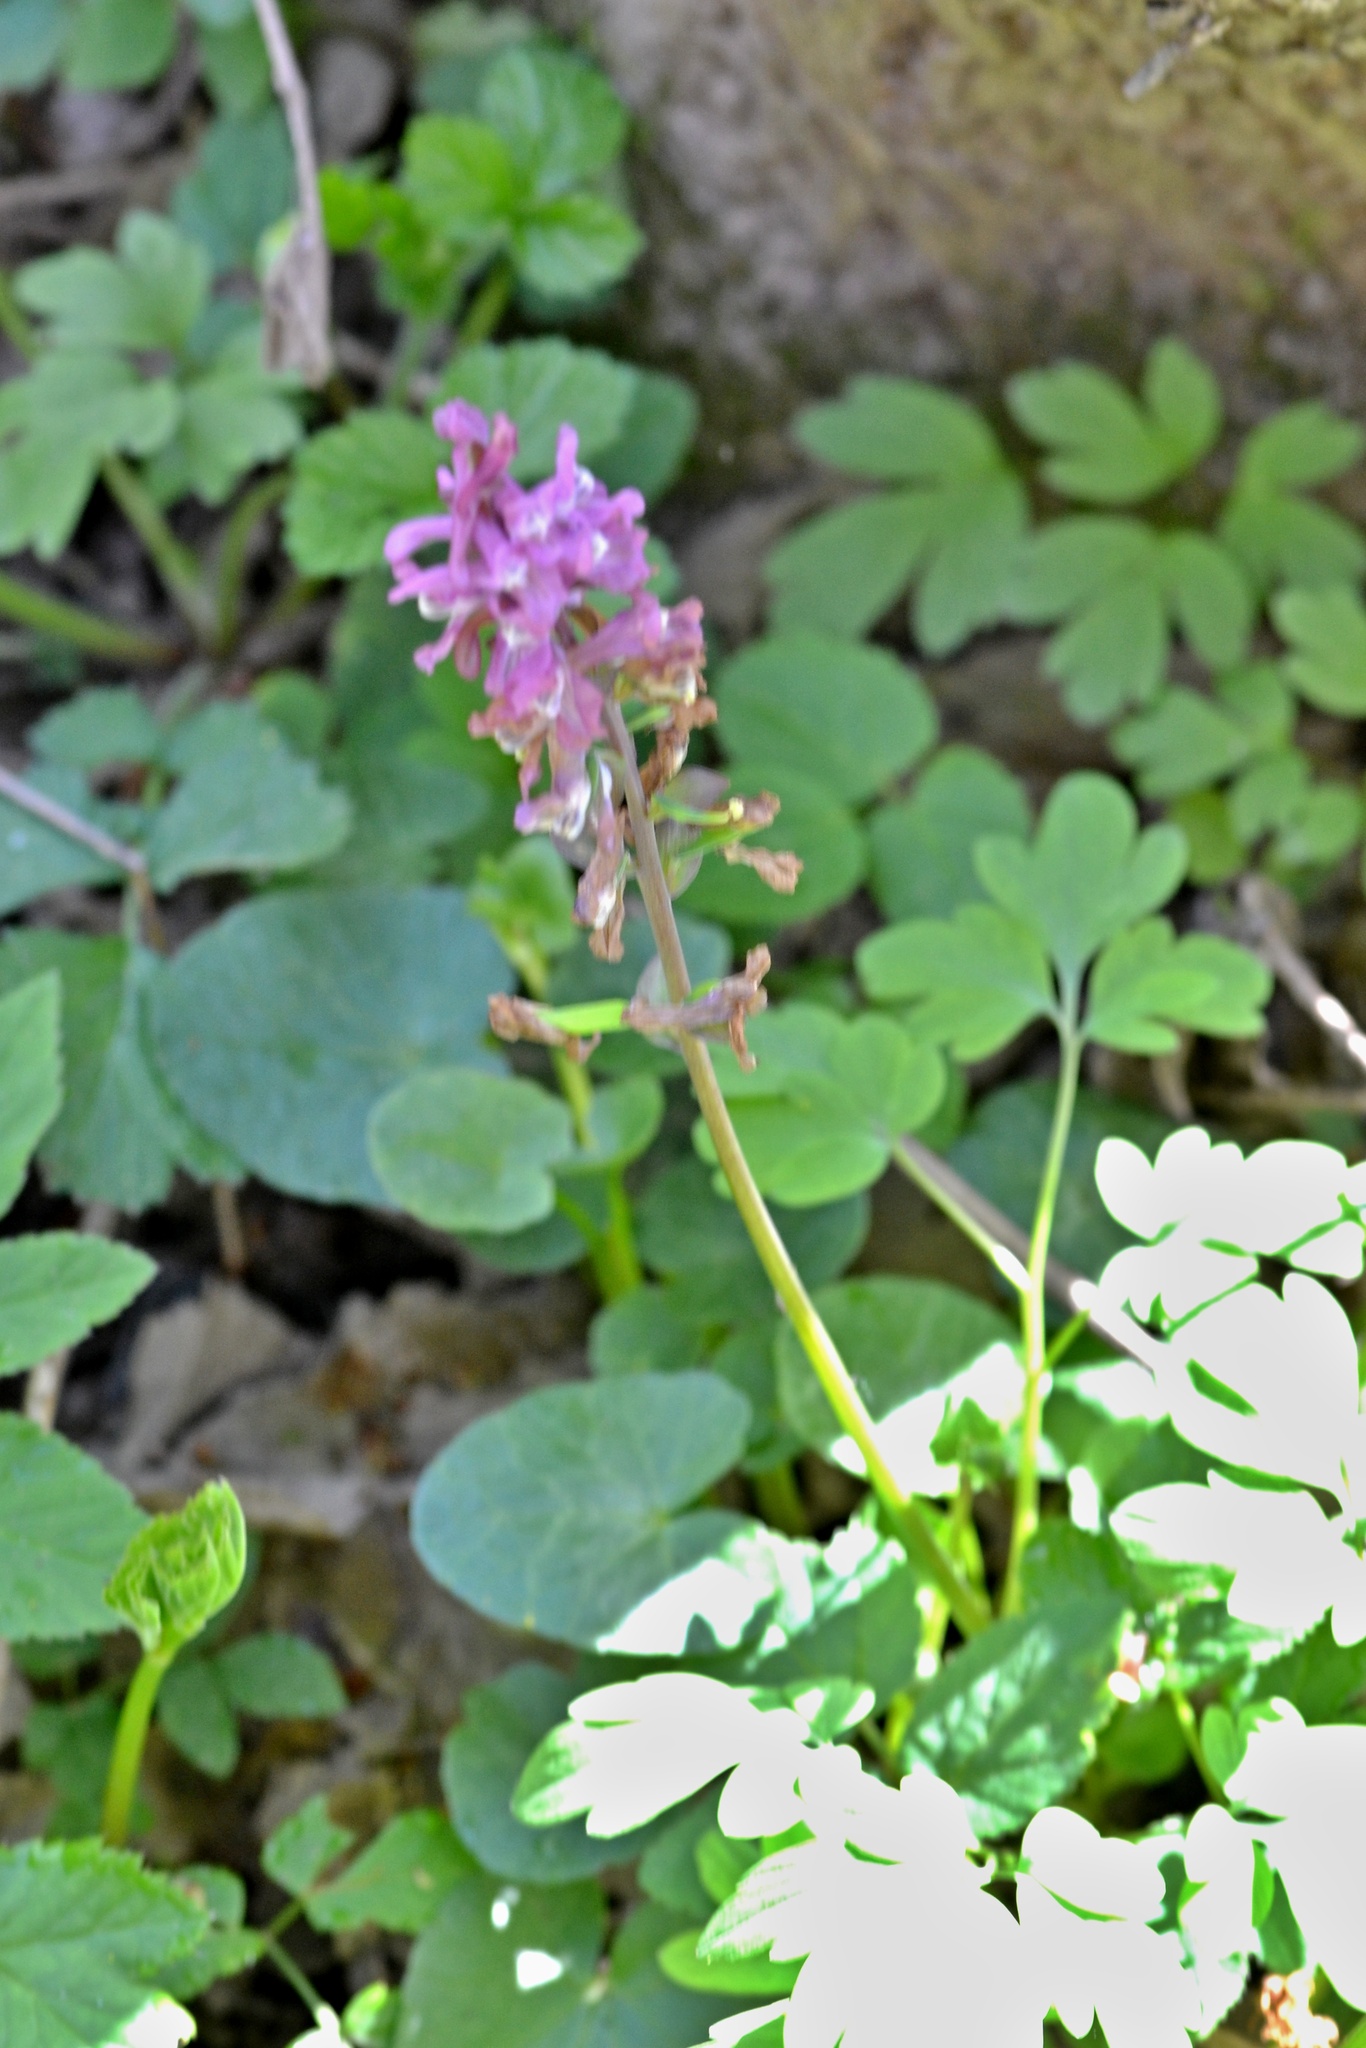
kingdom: Plantae
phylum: Tracheophyta
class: Magnoliopsida
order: Ranunculales
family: Papaveraceae
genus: Corydalis
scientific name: Corydalis cava
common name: Hollowroot
